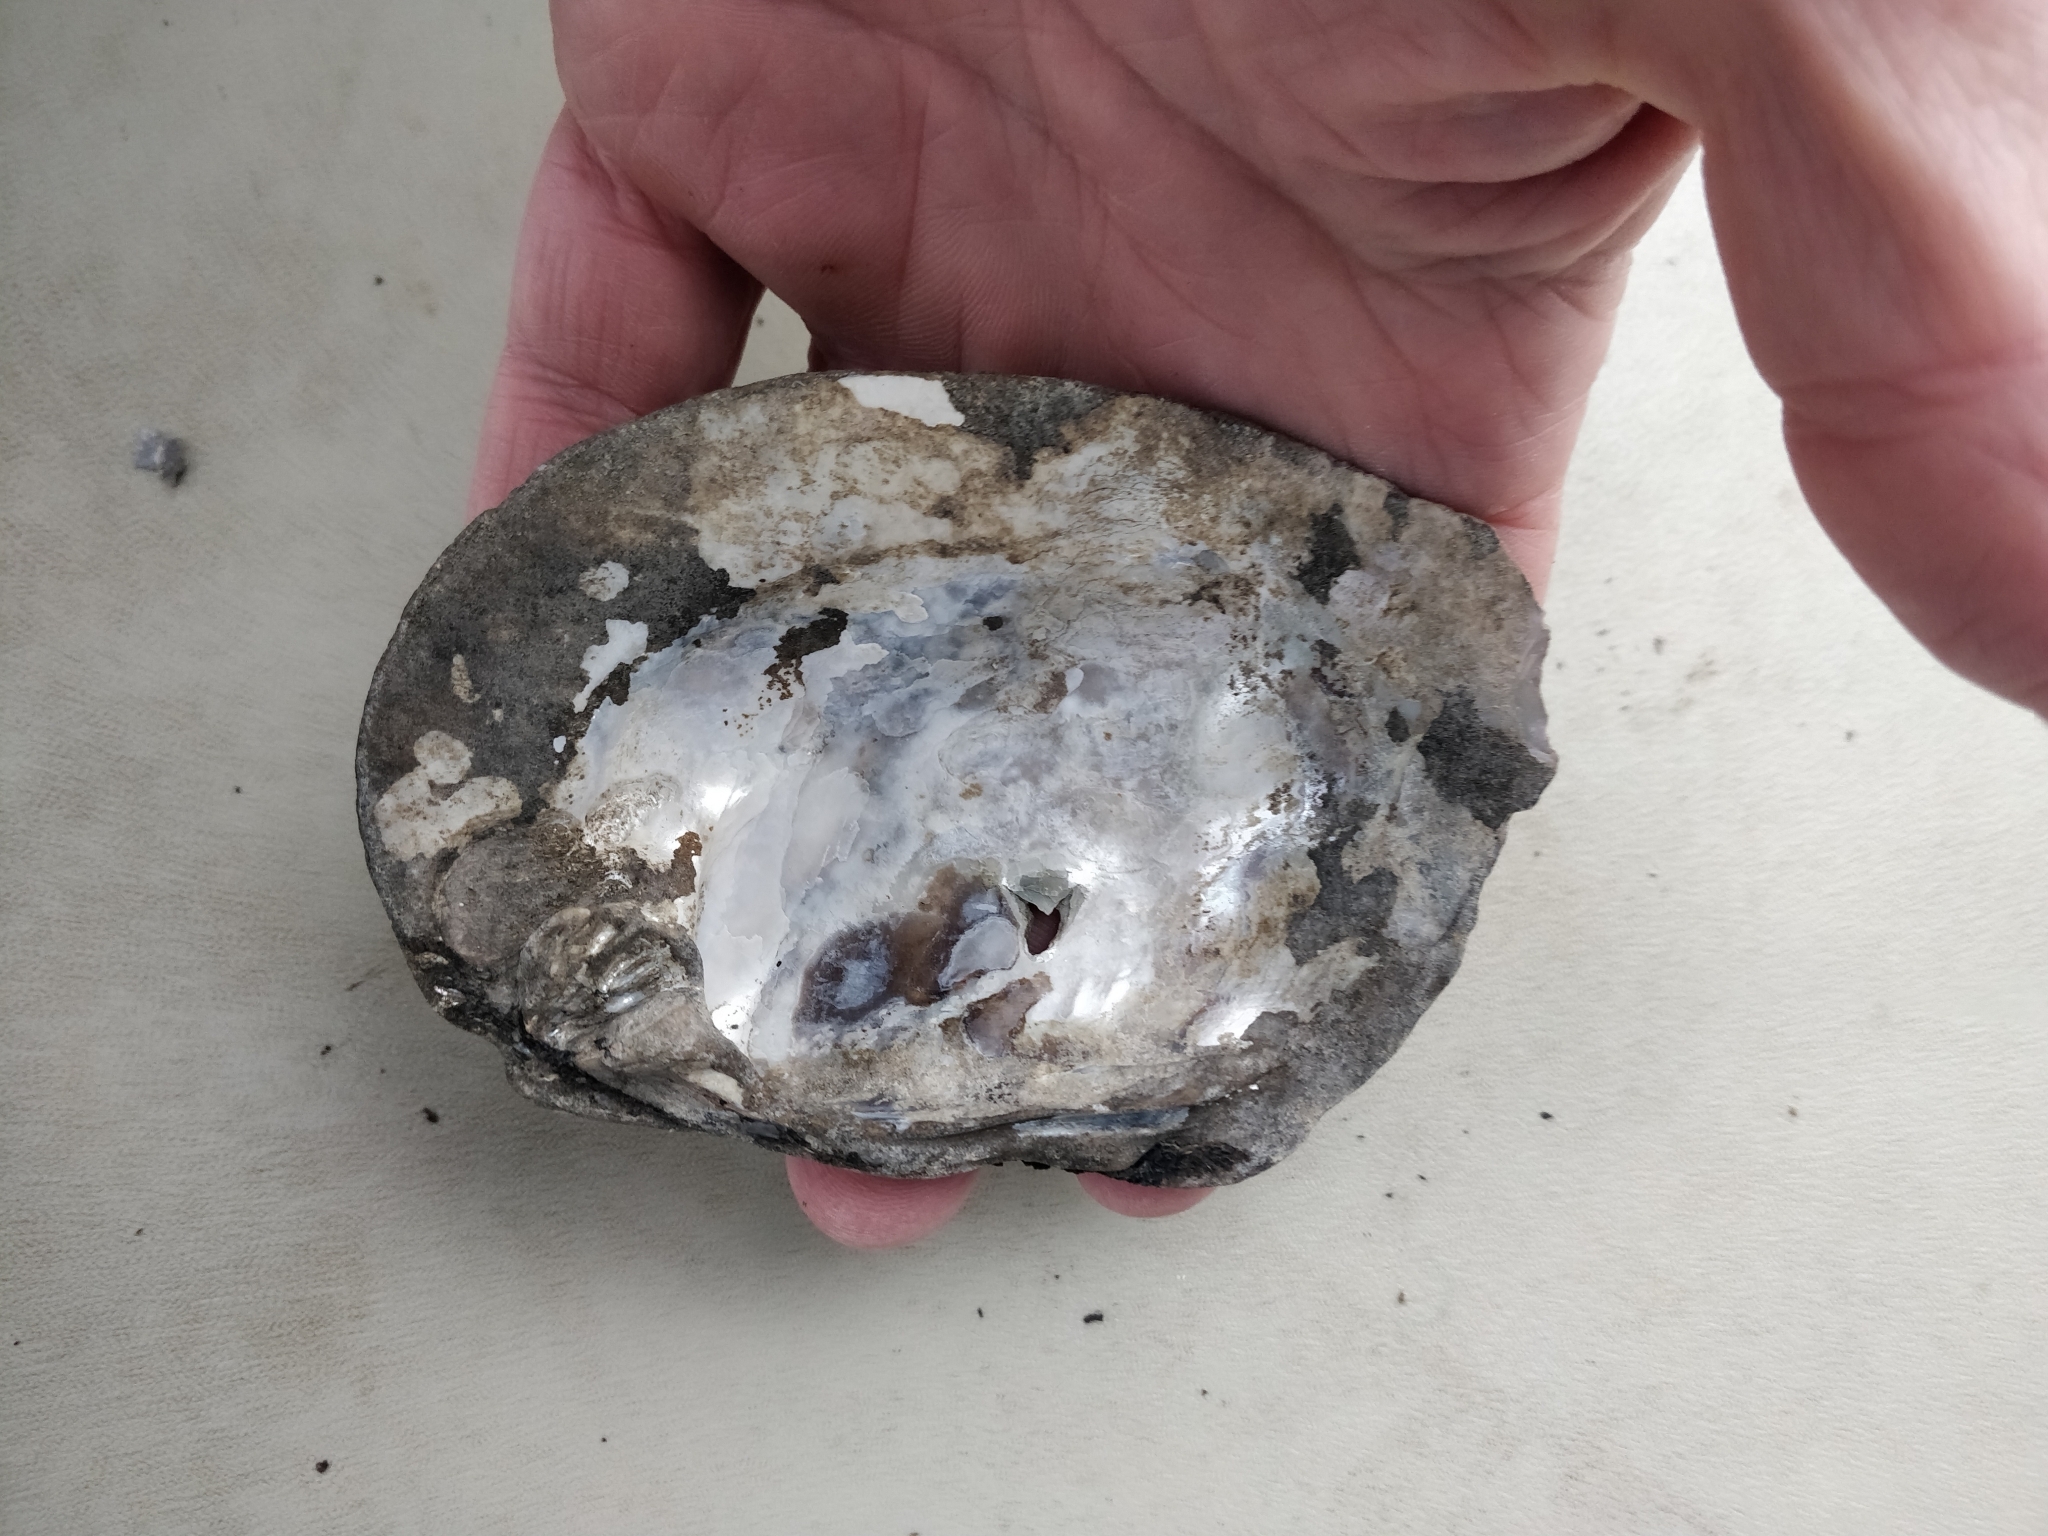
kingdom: Animalia
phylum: Mollusca
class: Bivalvia
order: Unionida
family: Unionidae
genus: Amblema
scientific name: Amblema plicata
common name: Threeridge
